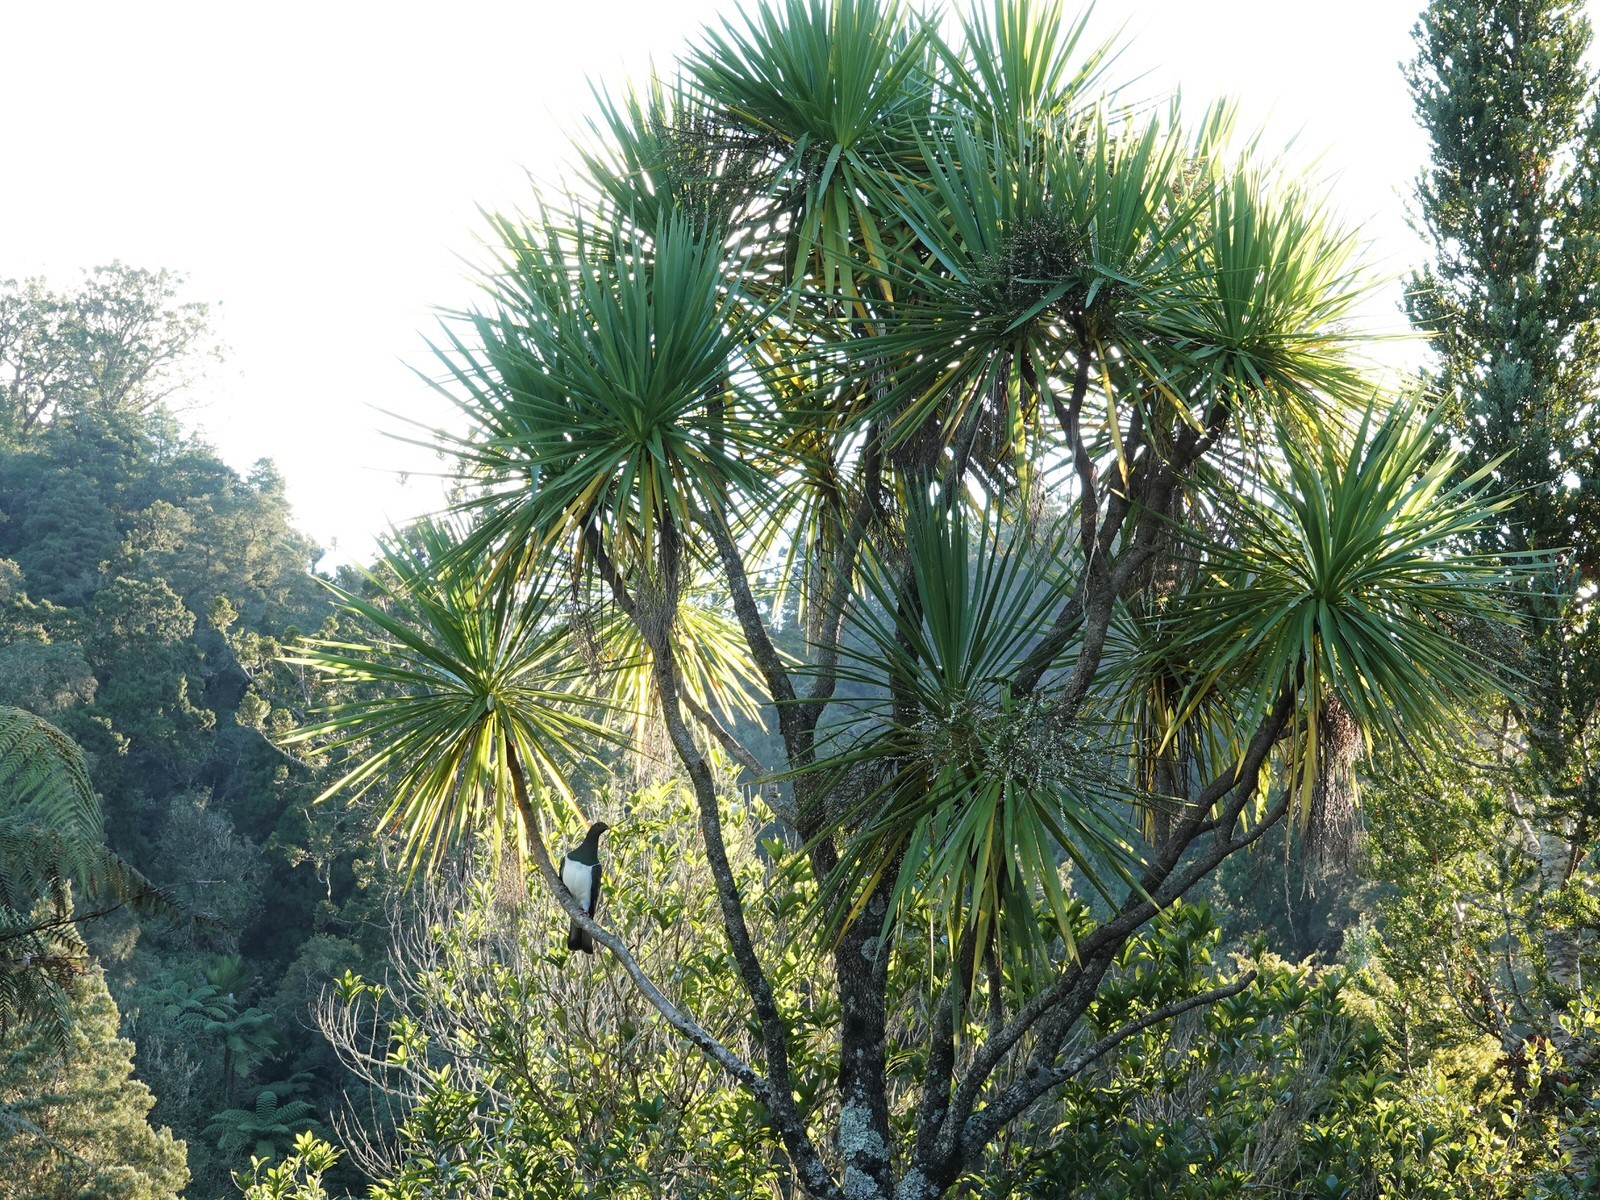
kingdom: Animalia
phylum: Chordata
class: Aves
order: Columbiformes
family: Columbidae
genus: Hemiphaga
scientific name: Hemiphaga novaeseelandiae
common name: New zealand pigeon
